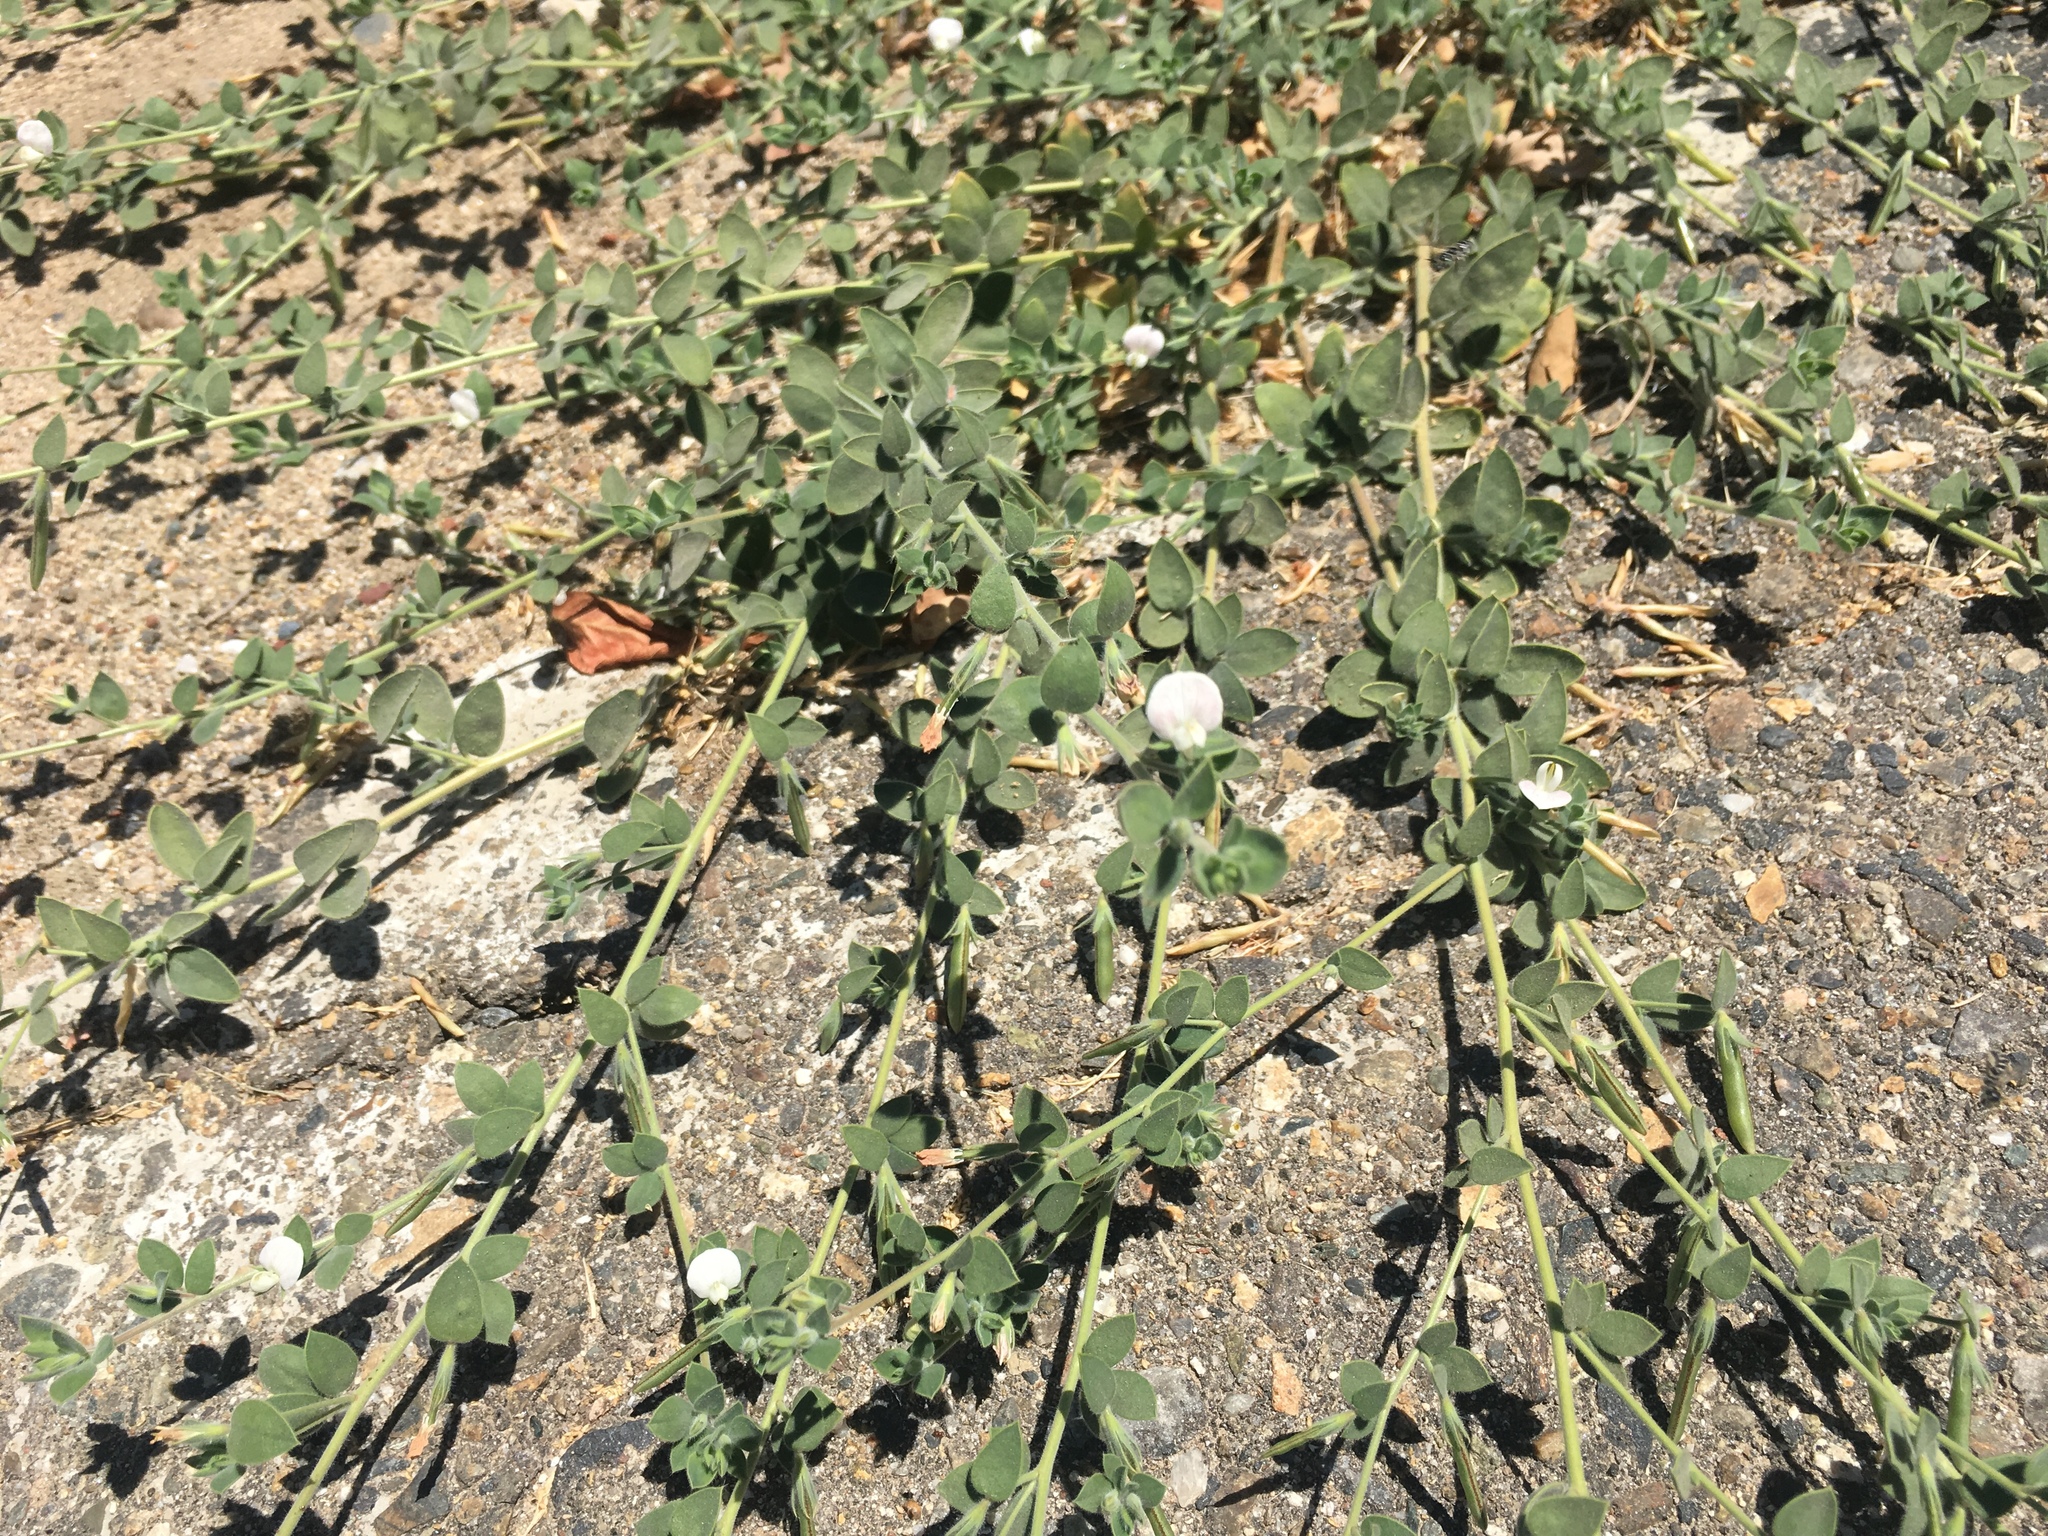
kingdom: Plantae
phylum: Tracheophyta
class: Magnoliopsida
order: Fabales
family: Fabaceae
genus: Acmispon
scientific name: Acmispon americanus
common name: American bird's-foot trefoil
